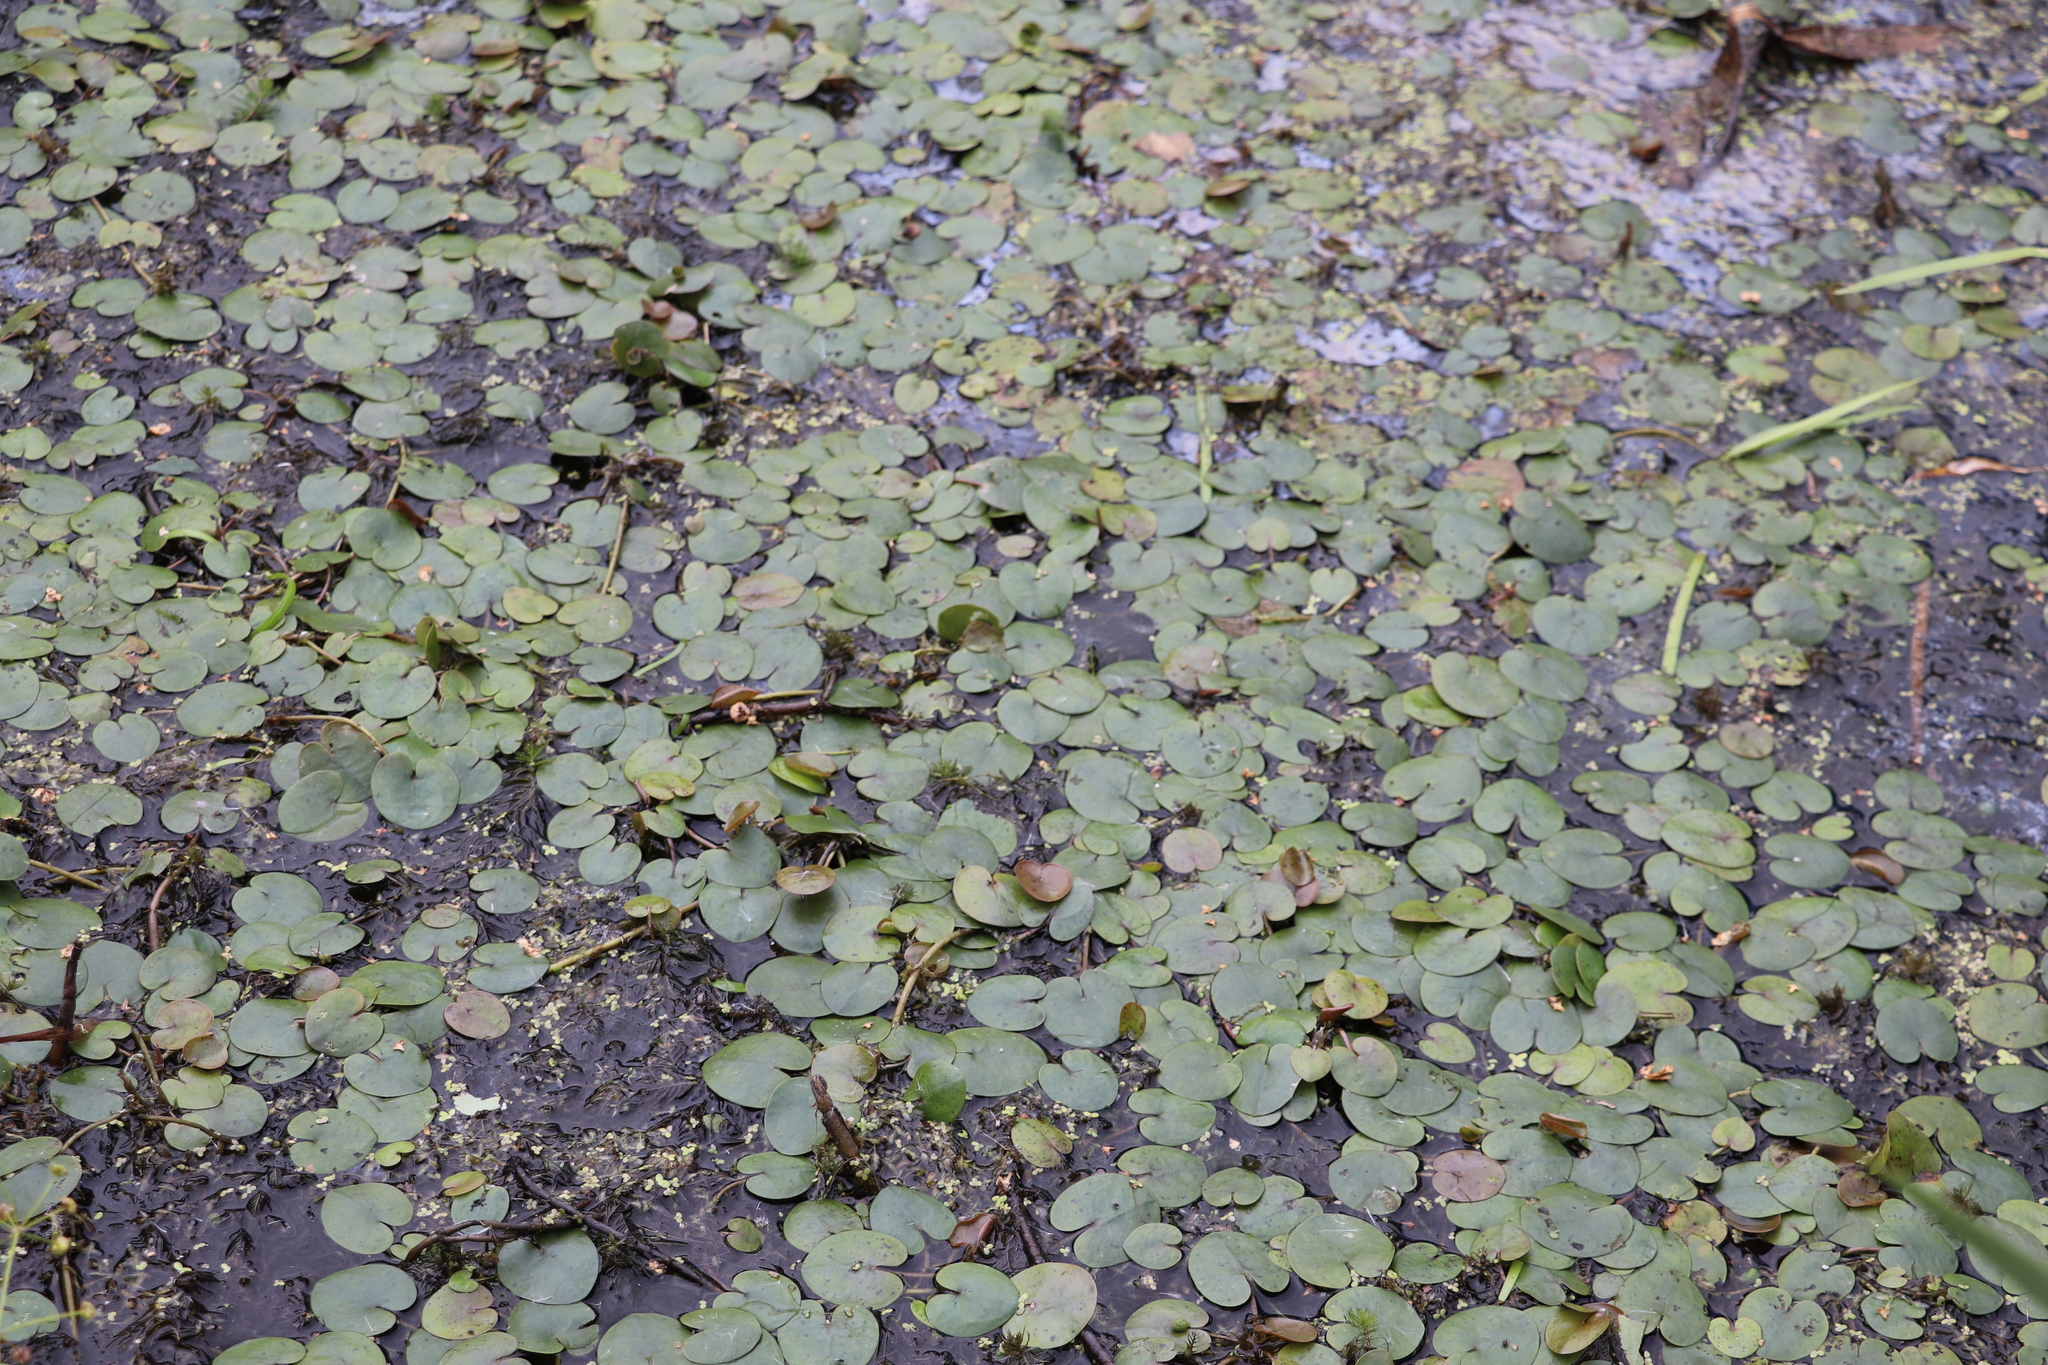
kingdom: Plantae
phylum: Tracheophyta
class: Liliopsida
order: Alismatales
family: Hydrocharitaceae
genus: Hydrocharis
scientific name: Hydrocharis morsus-ranae
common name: Frogbit
